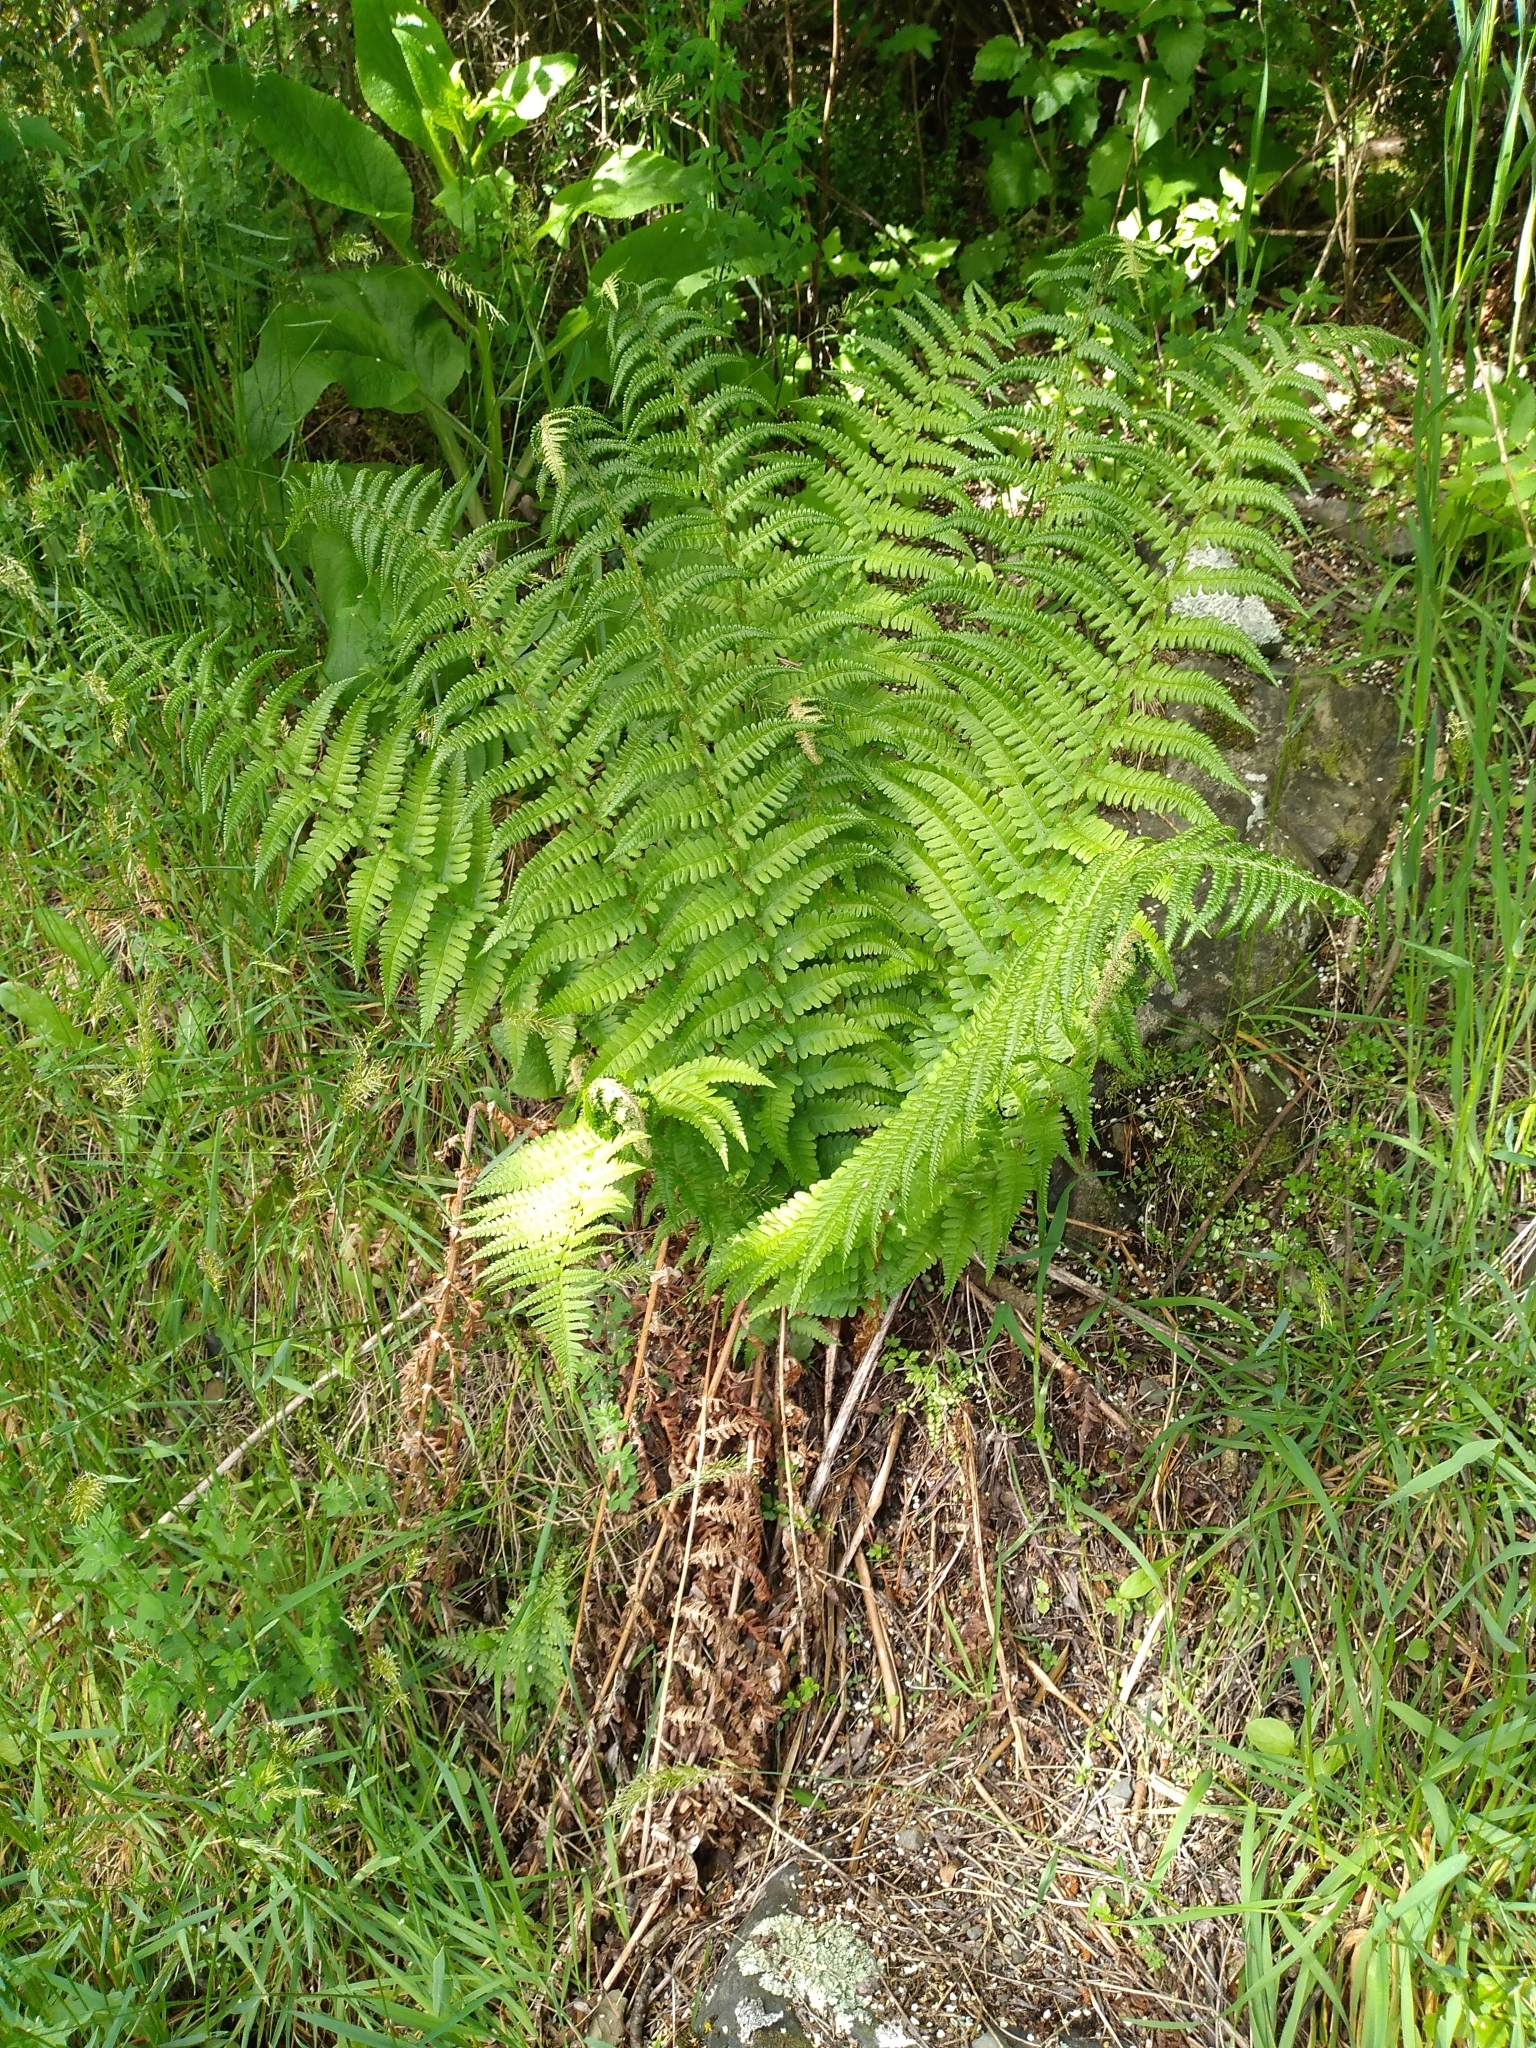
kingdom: Plantae
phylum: Tracheophyta
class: Polypodiopsida
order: Polypodiales
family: Dryopteridaceae
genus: Dryopteris
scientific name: Dryopteris filix-mas
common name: Male fern
